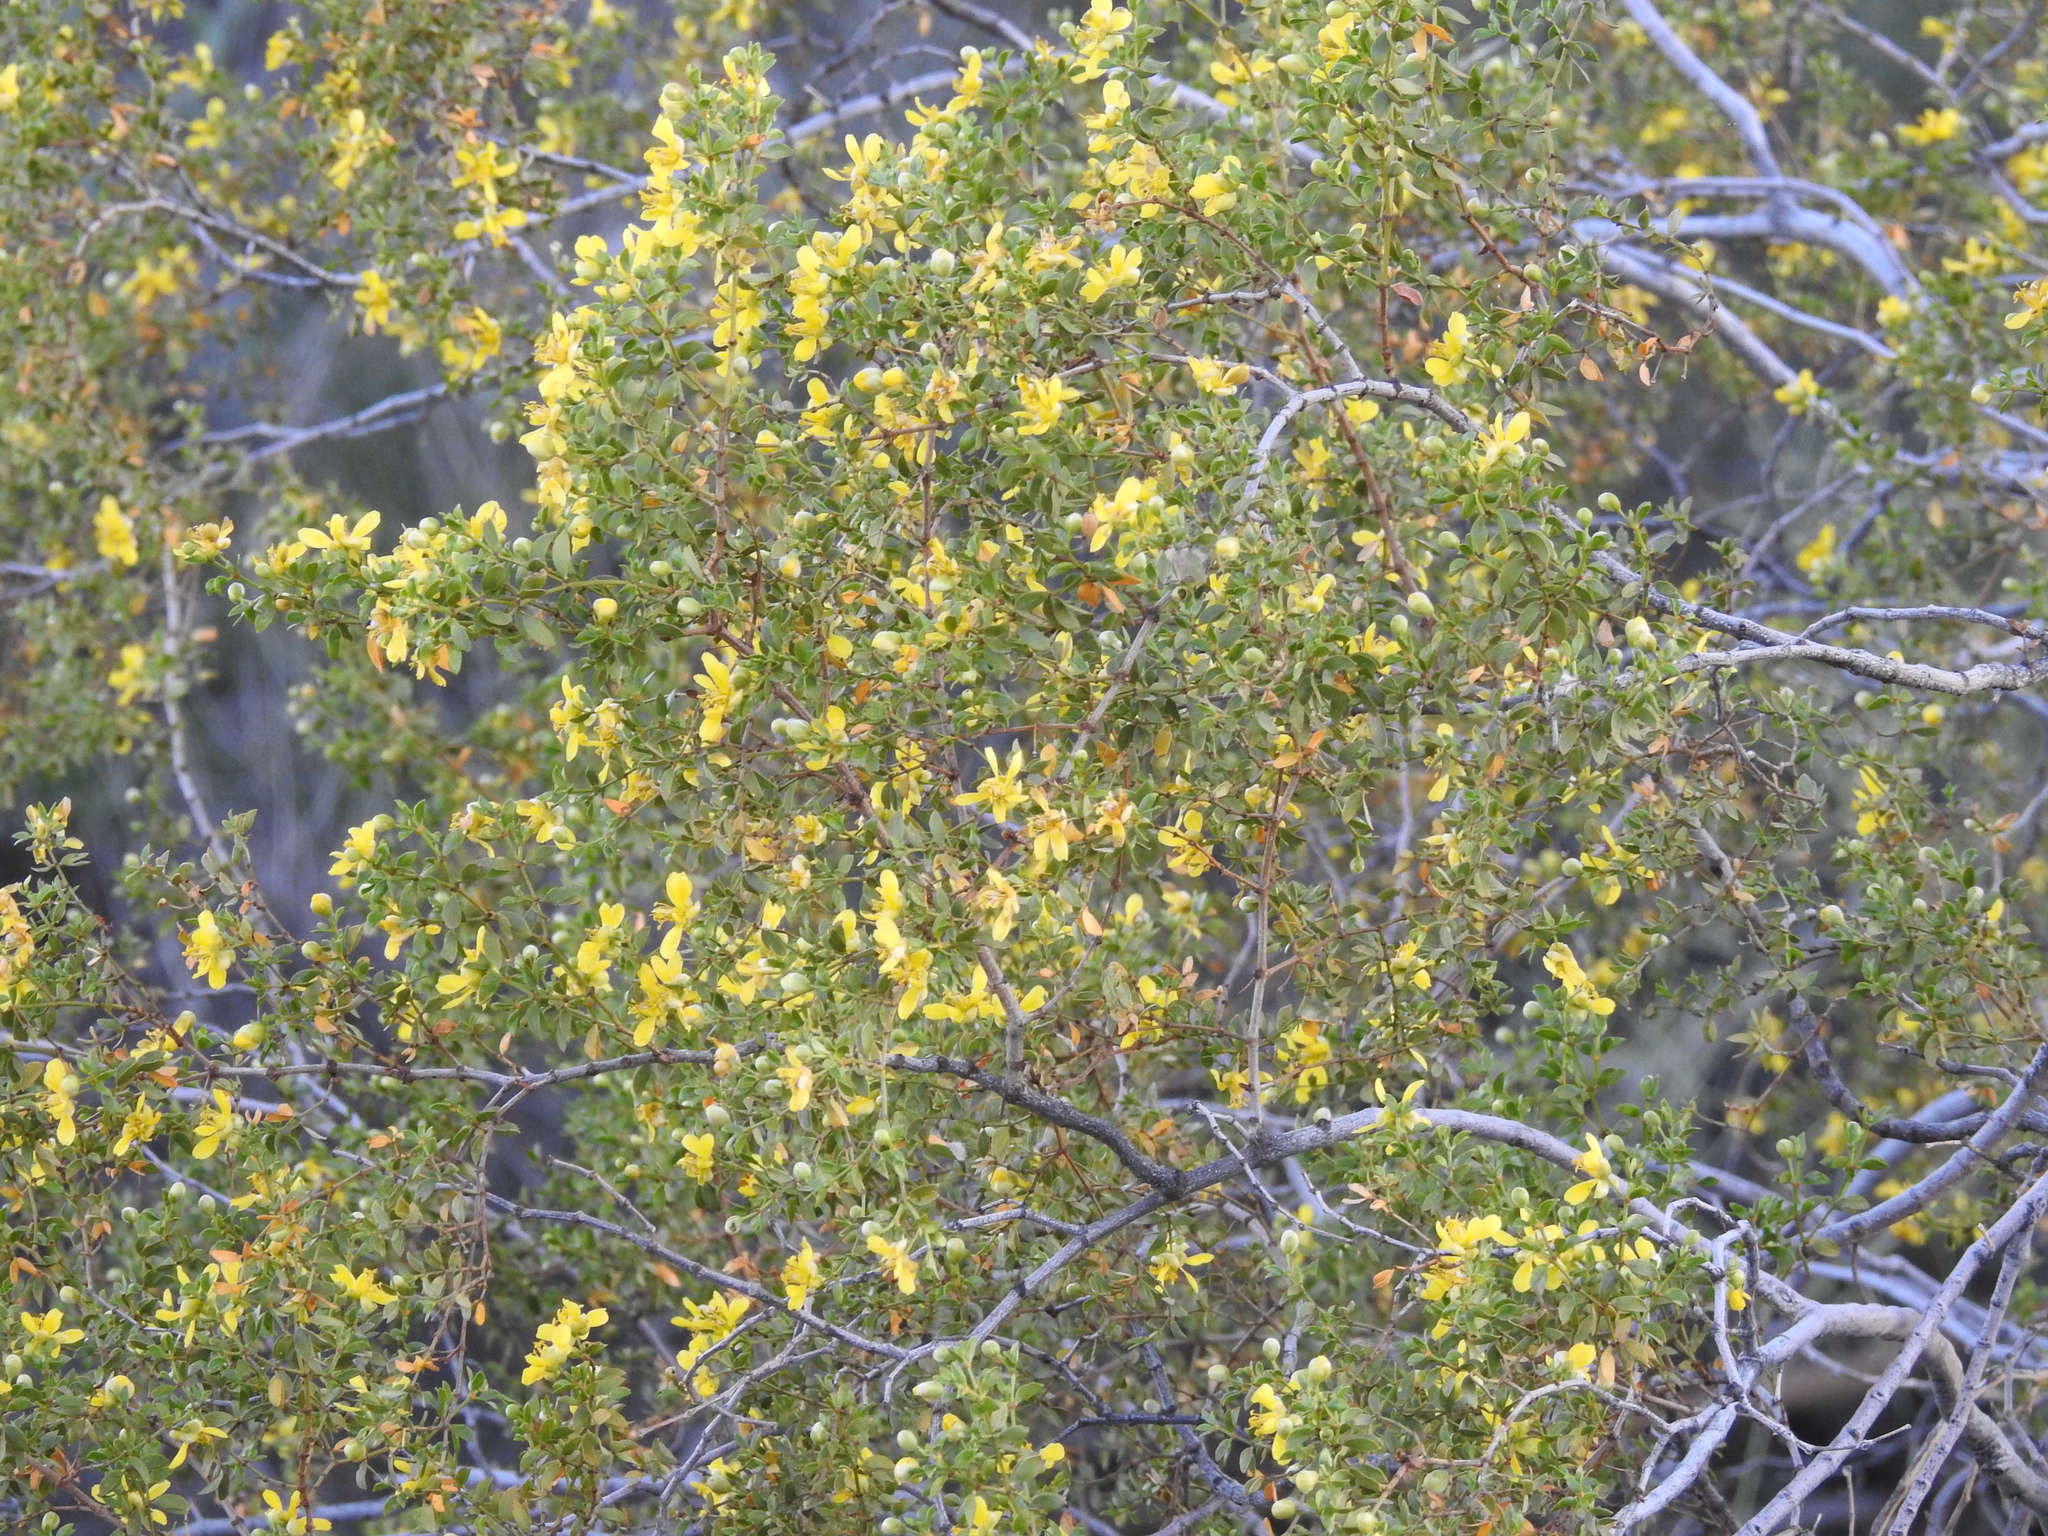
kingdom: Plantae
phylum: Tracheophyta
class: Magnoliopsida
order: Zygophyllales
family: Zygophyllaceae
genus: Larrea
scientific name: Larrea tridentata
